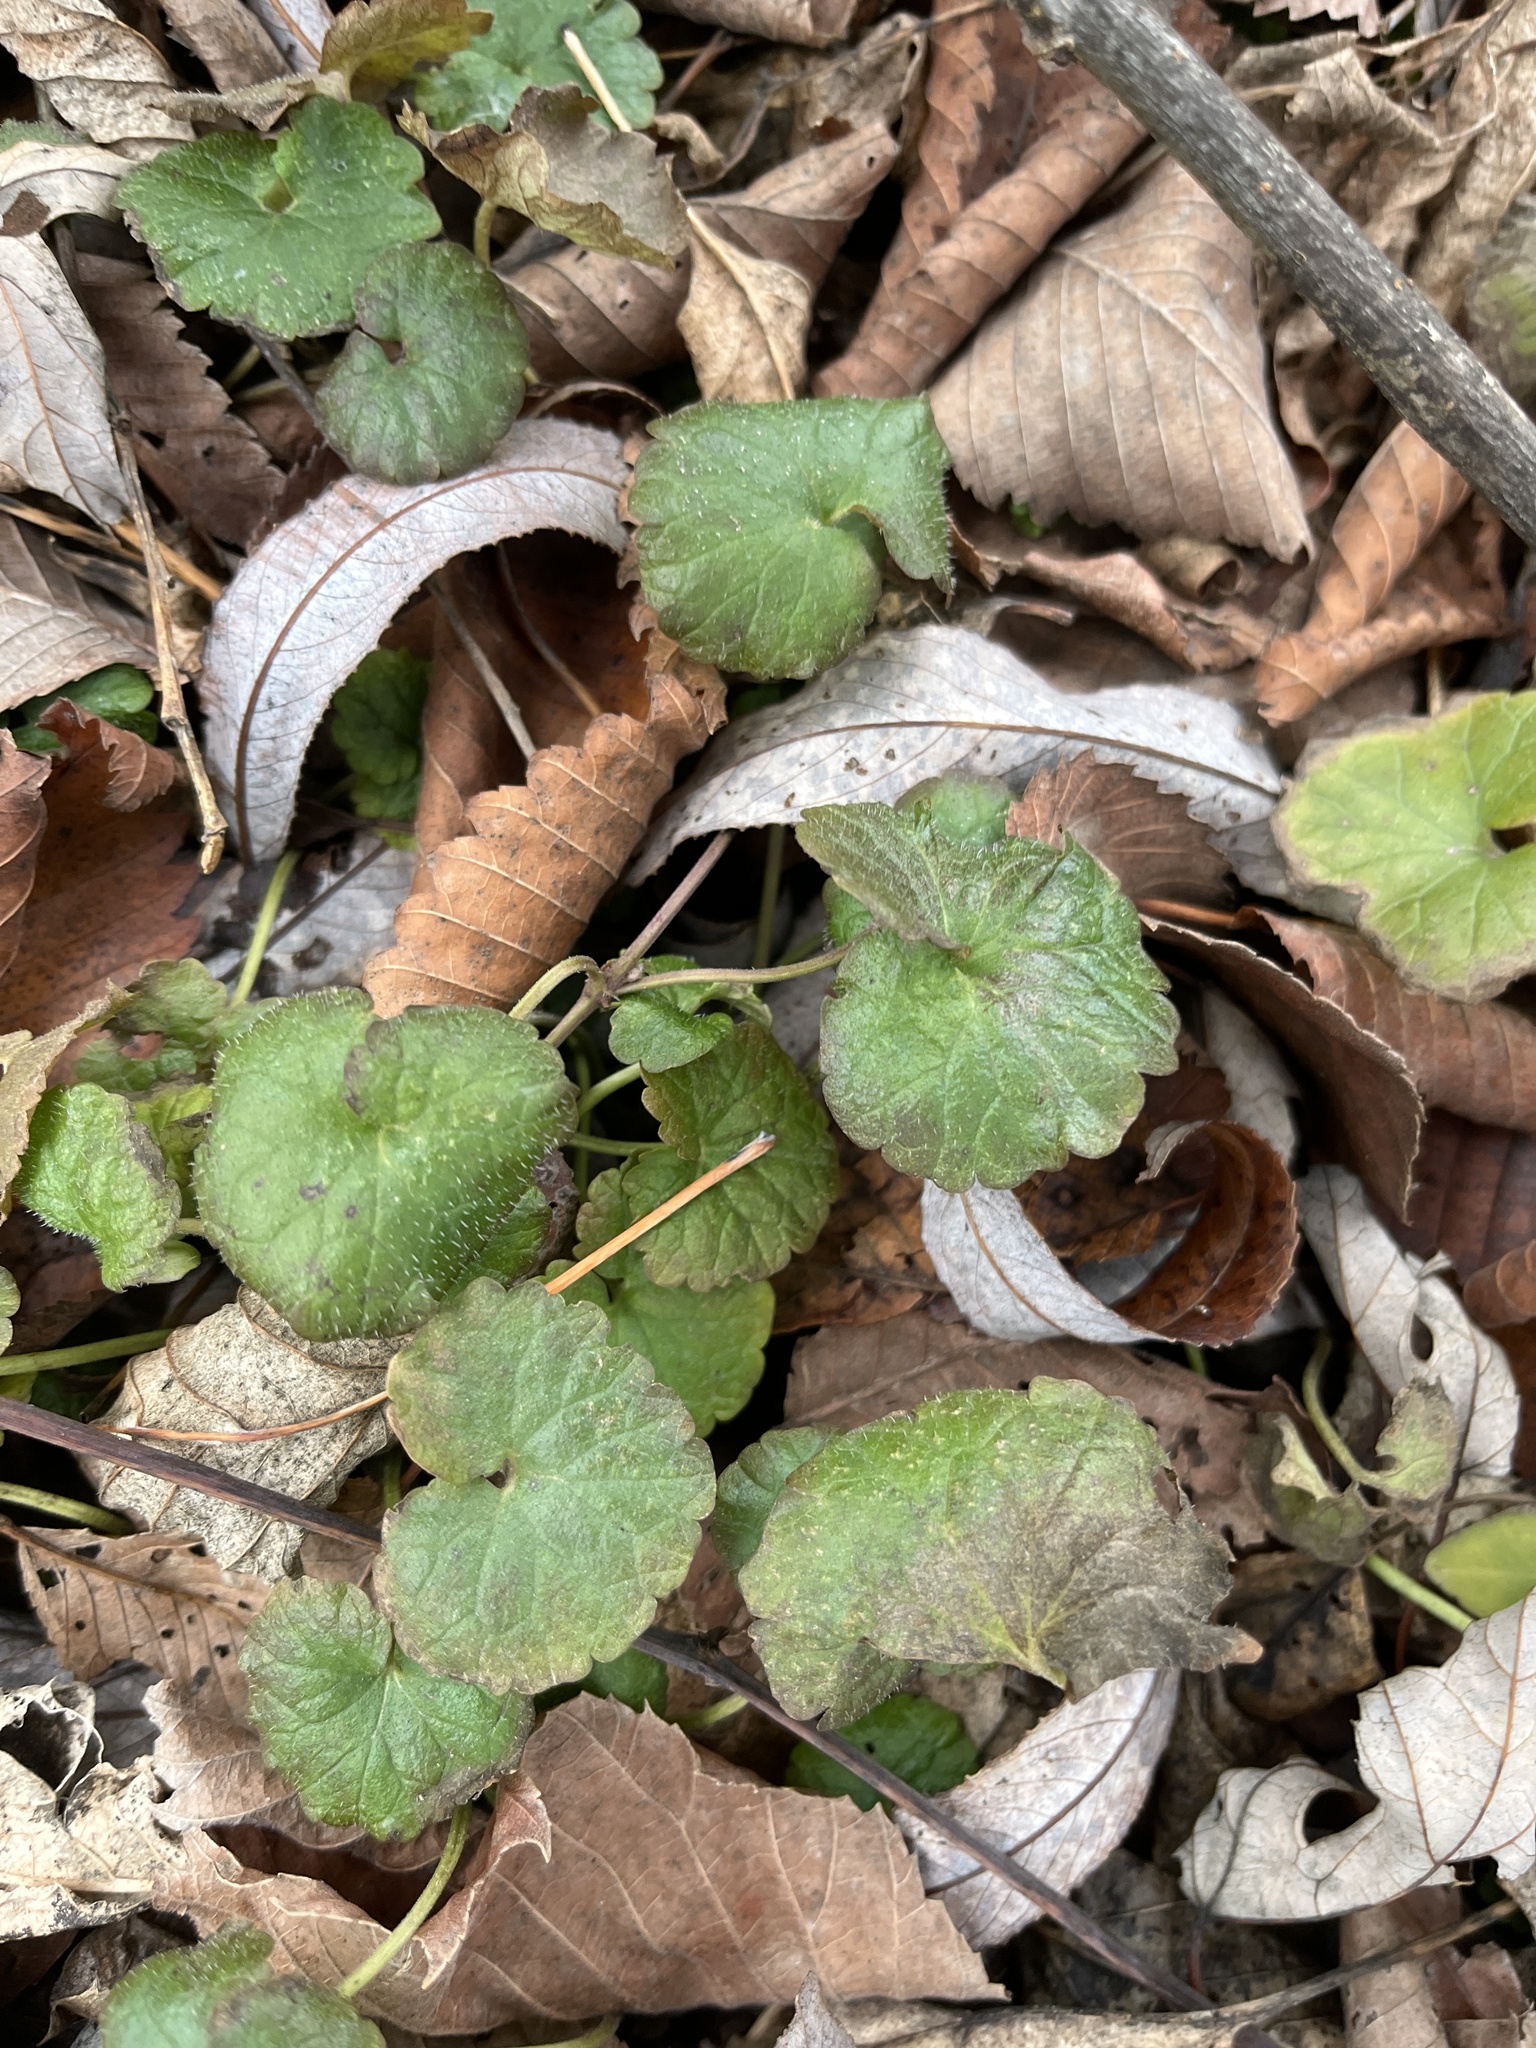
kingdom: Plantae
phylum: Tracheophyta
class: Magnoliopsida
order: Lamiales
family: Lamiaceae
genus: Glechoma
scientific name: Glechoma hederacea
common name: Ground ivy
